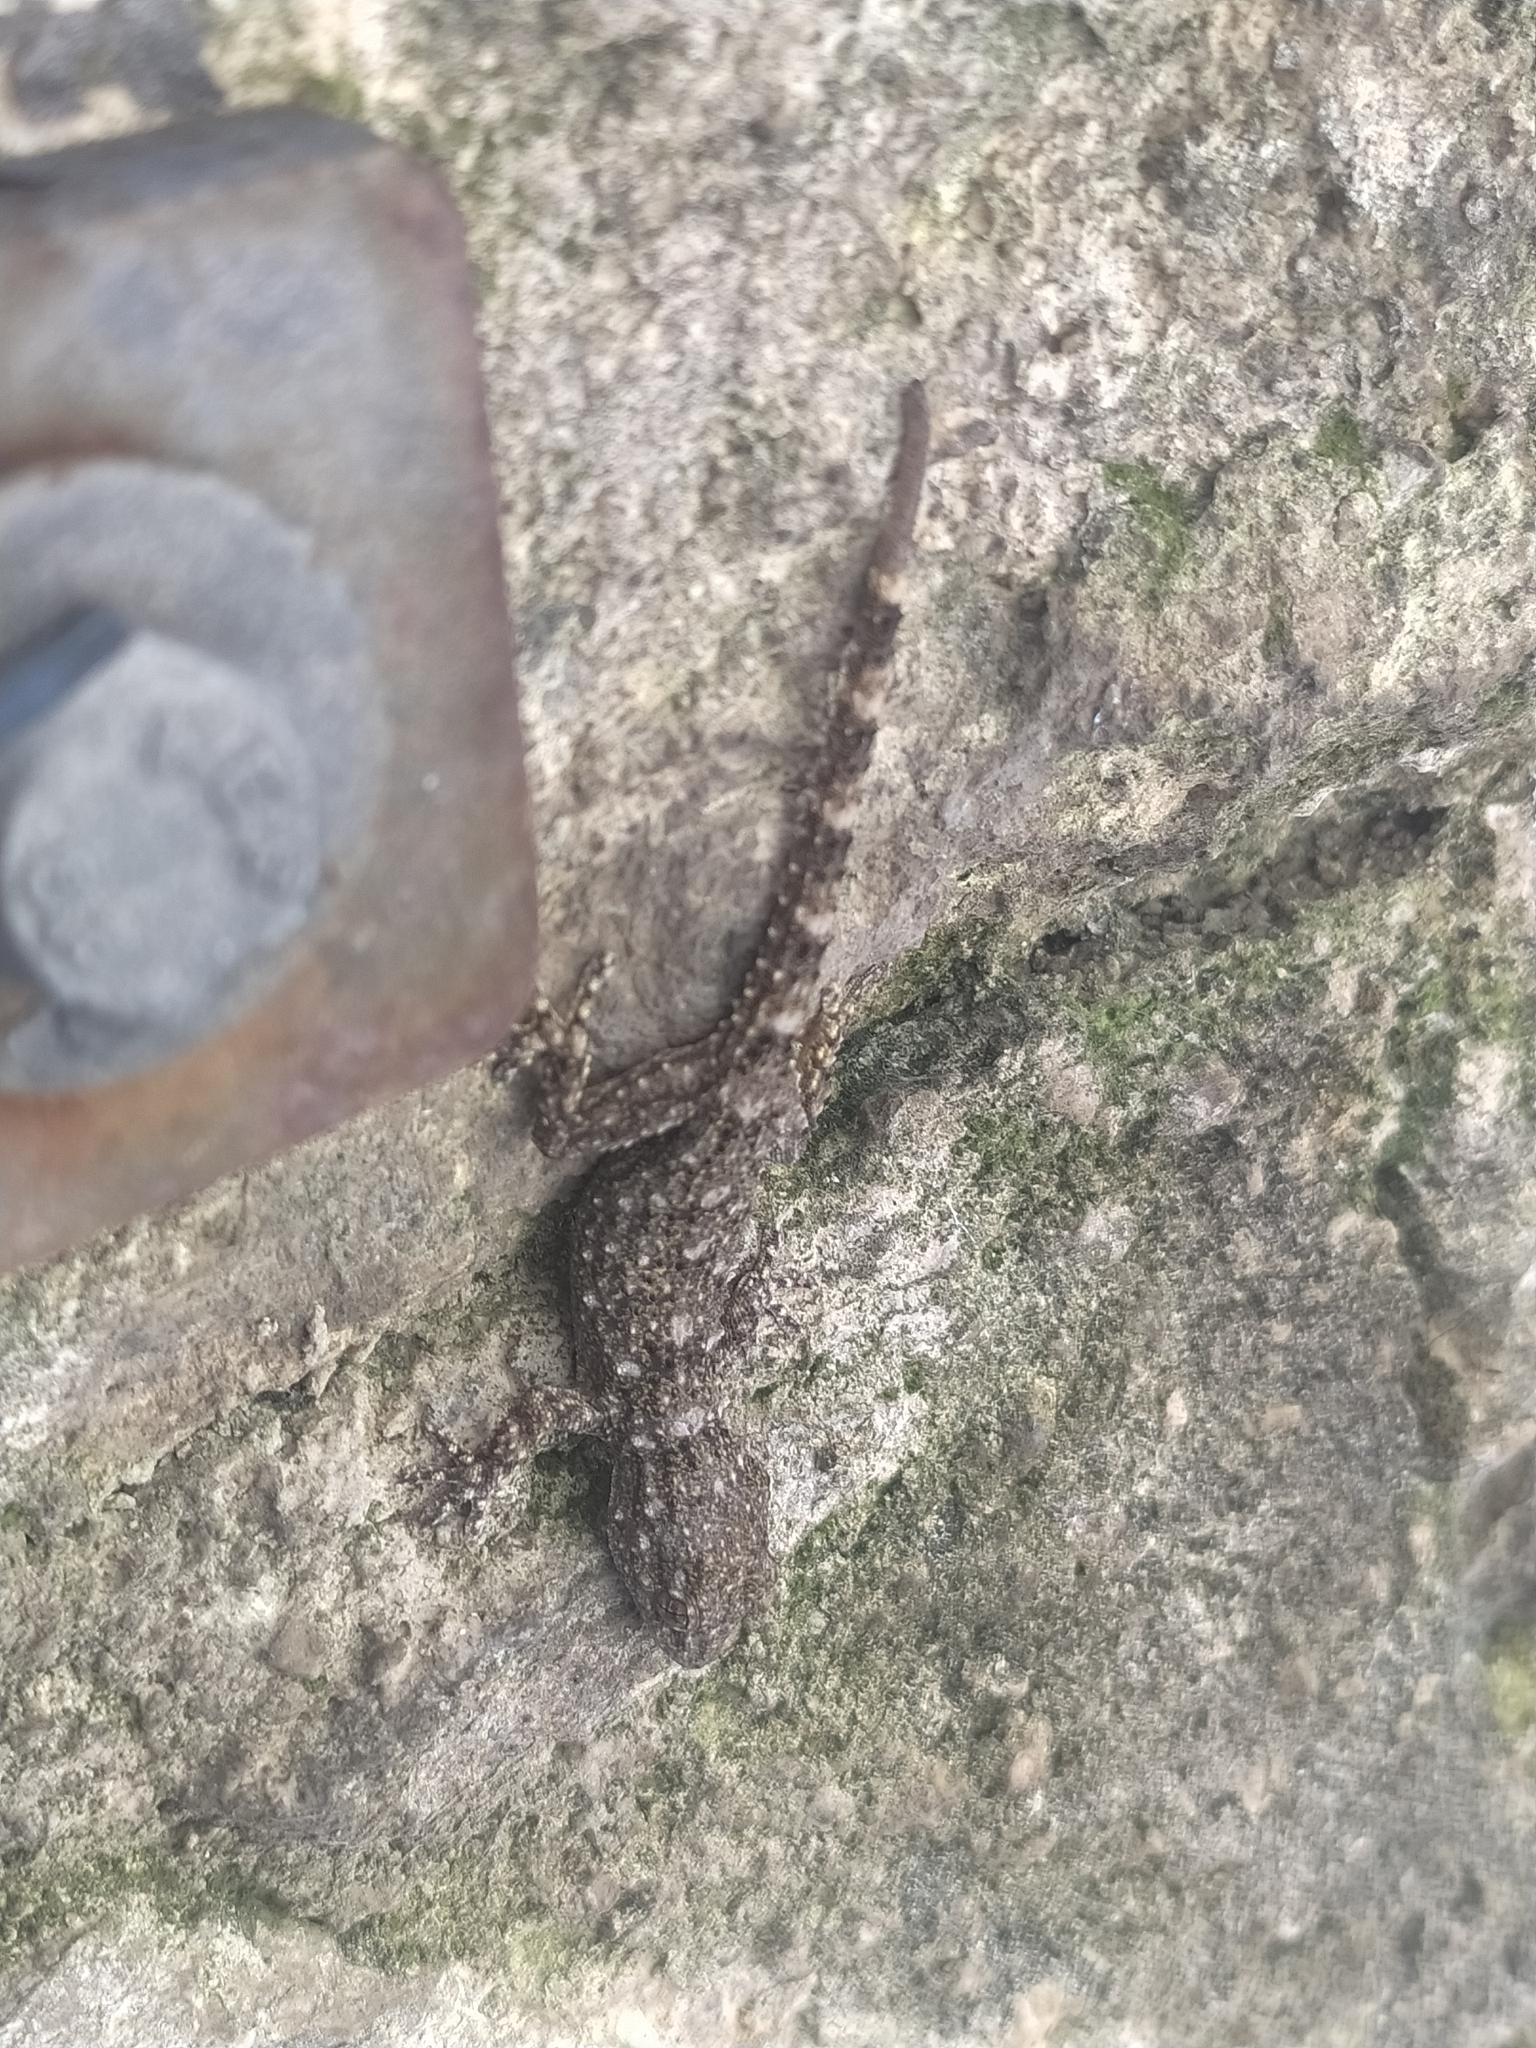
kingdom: Animalia
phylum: Chordata
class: Squamata
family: Phyllodactylidae
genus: Tarentola
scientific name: Tarentola mauritanica
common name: Moorish gecko
